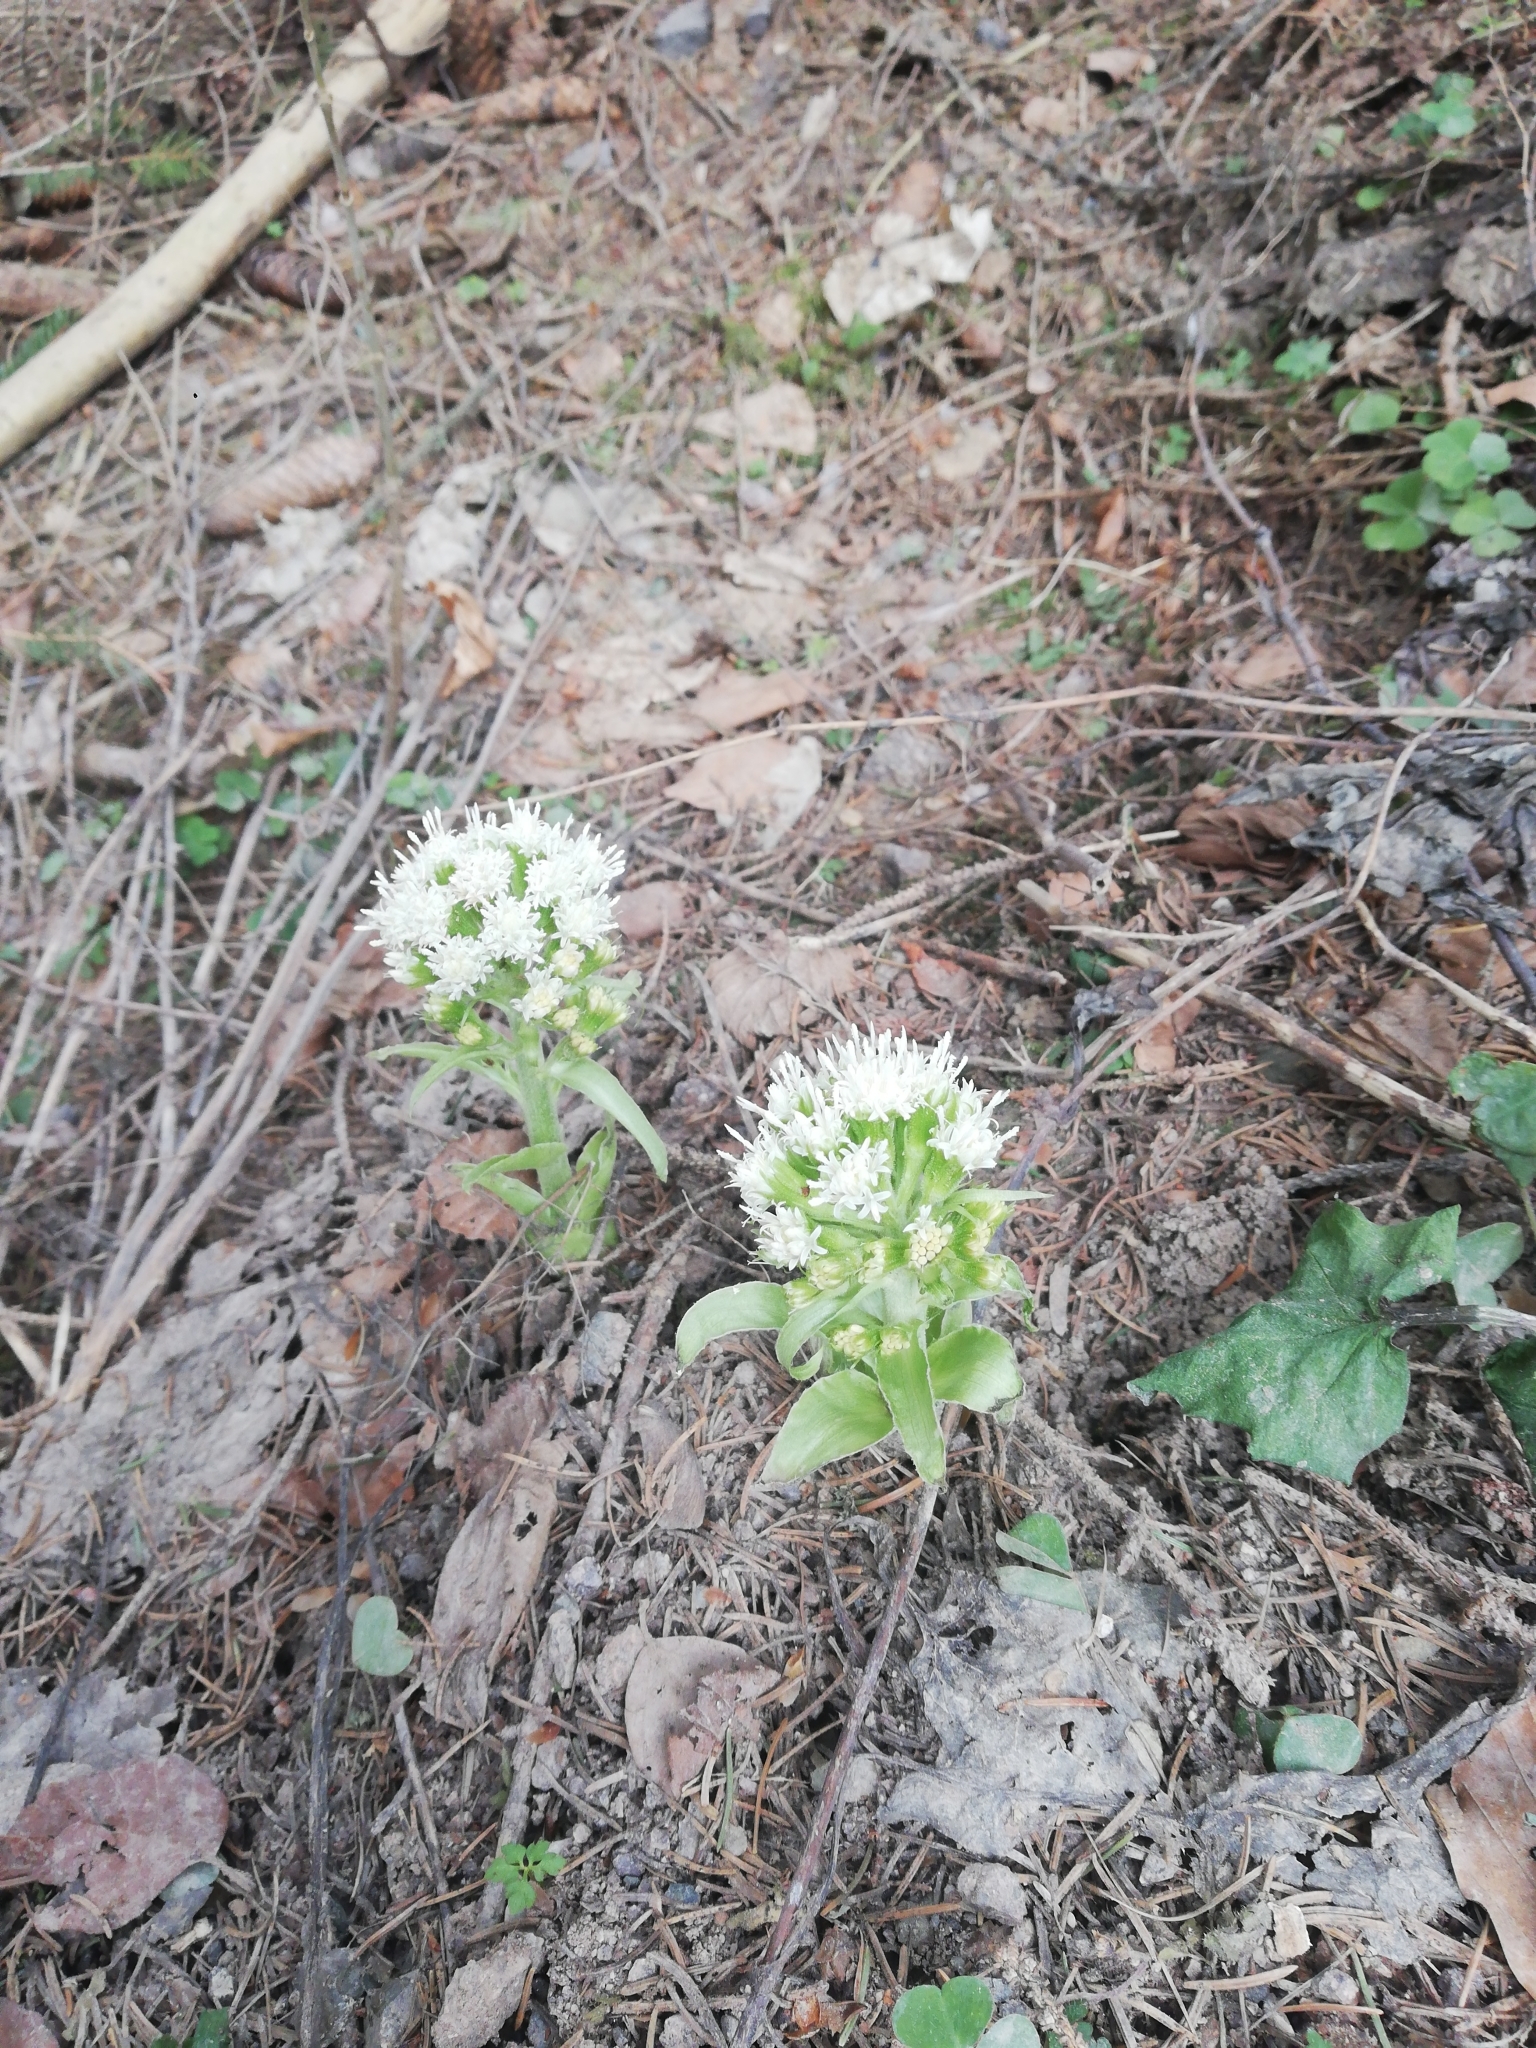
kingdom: Plantae
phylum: Tracheophyta
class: Magnoliopsida
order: Asterales
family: Asteraceae
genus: Petasites
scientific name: Petasites albus
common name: White butterbur
